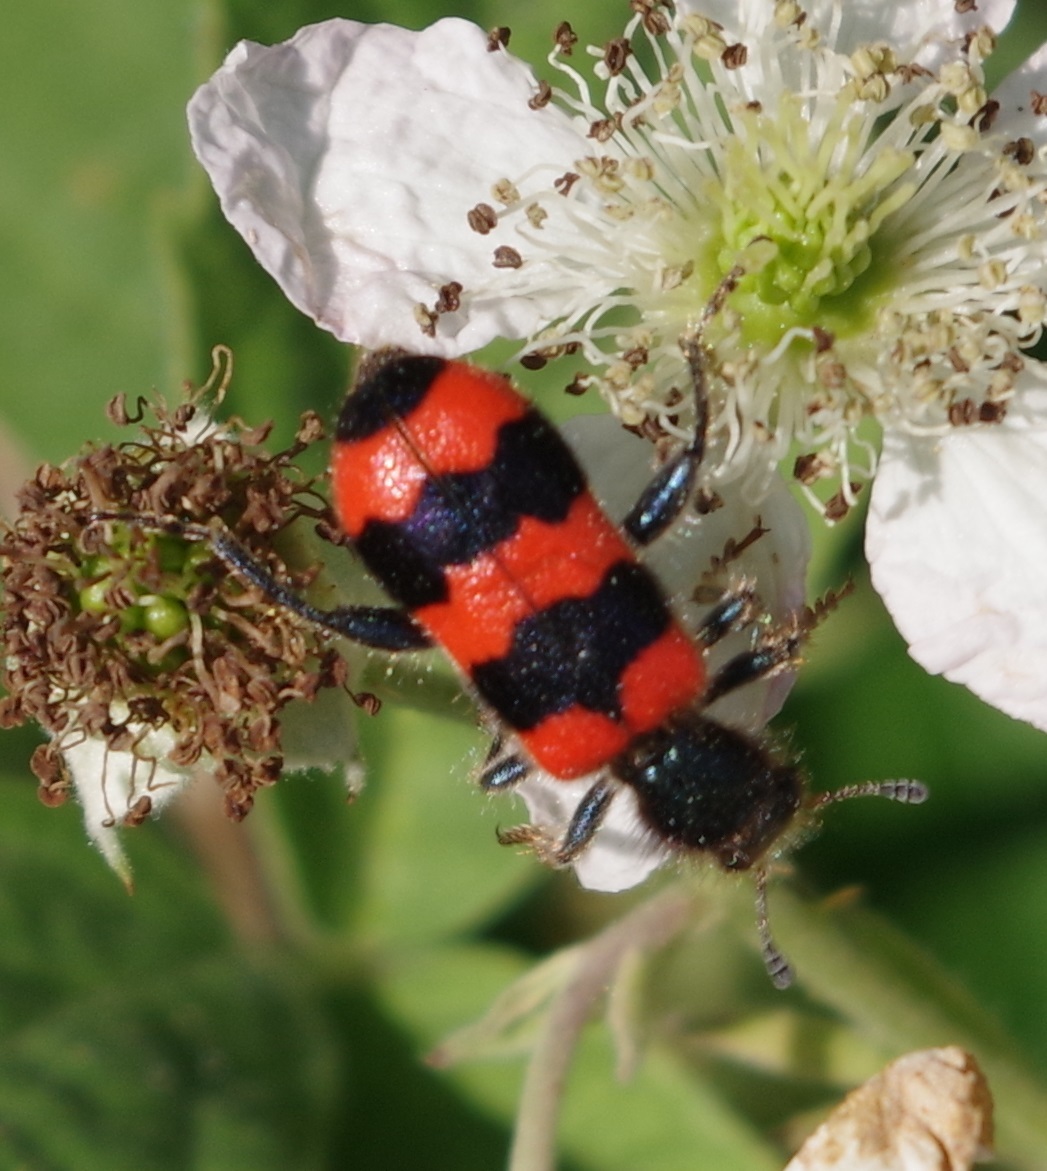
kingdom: Animalia
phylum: Arthropoda
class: Insecta
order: Coleoptera
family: Cleridae
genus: Trichodes
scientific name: Trichodes apiarius
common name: Bee-eating beetle
